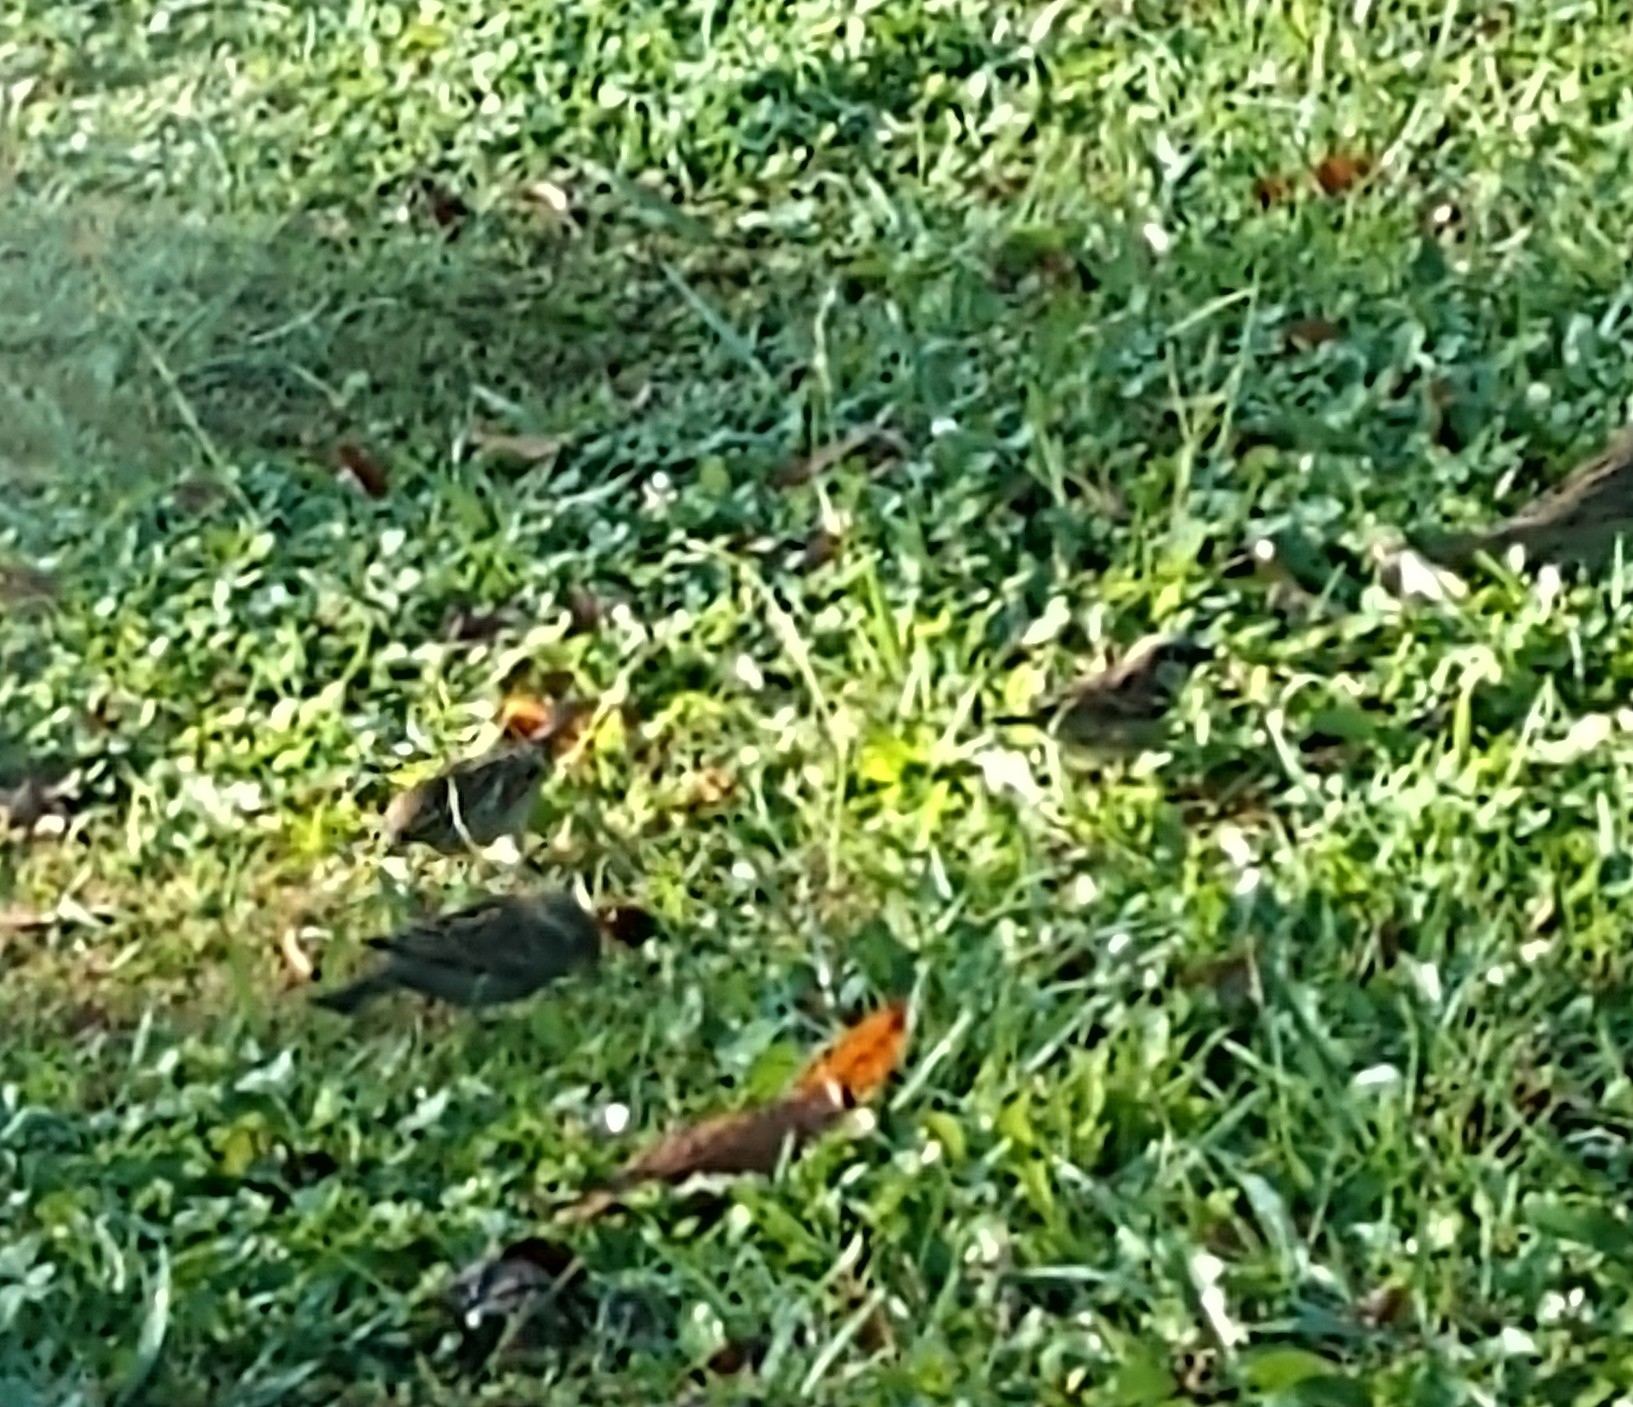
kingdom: Animalia
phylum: Chordata
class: Aves
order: Passeriformes
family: Passeridae
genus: Passer
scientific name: Passer domesticus
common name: House sparrow
